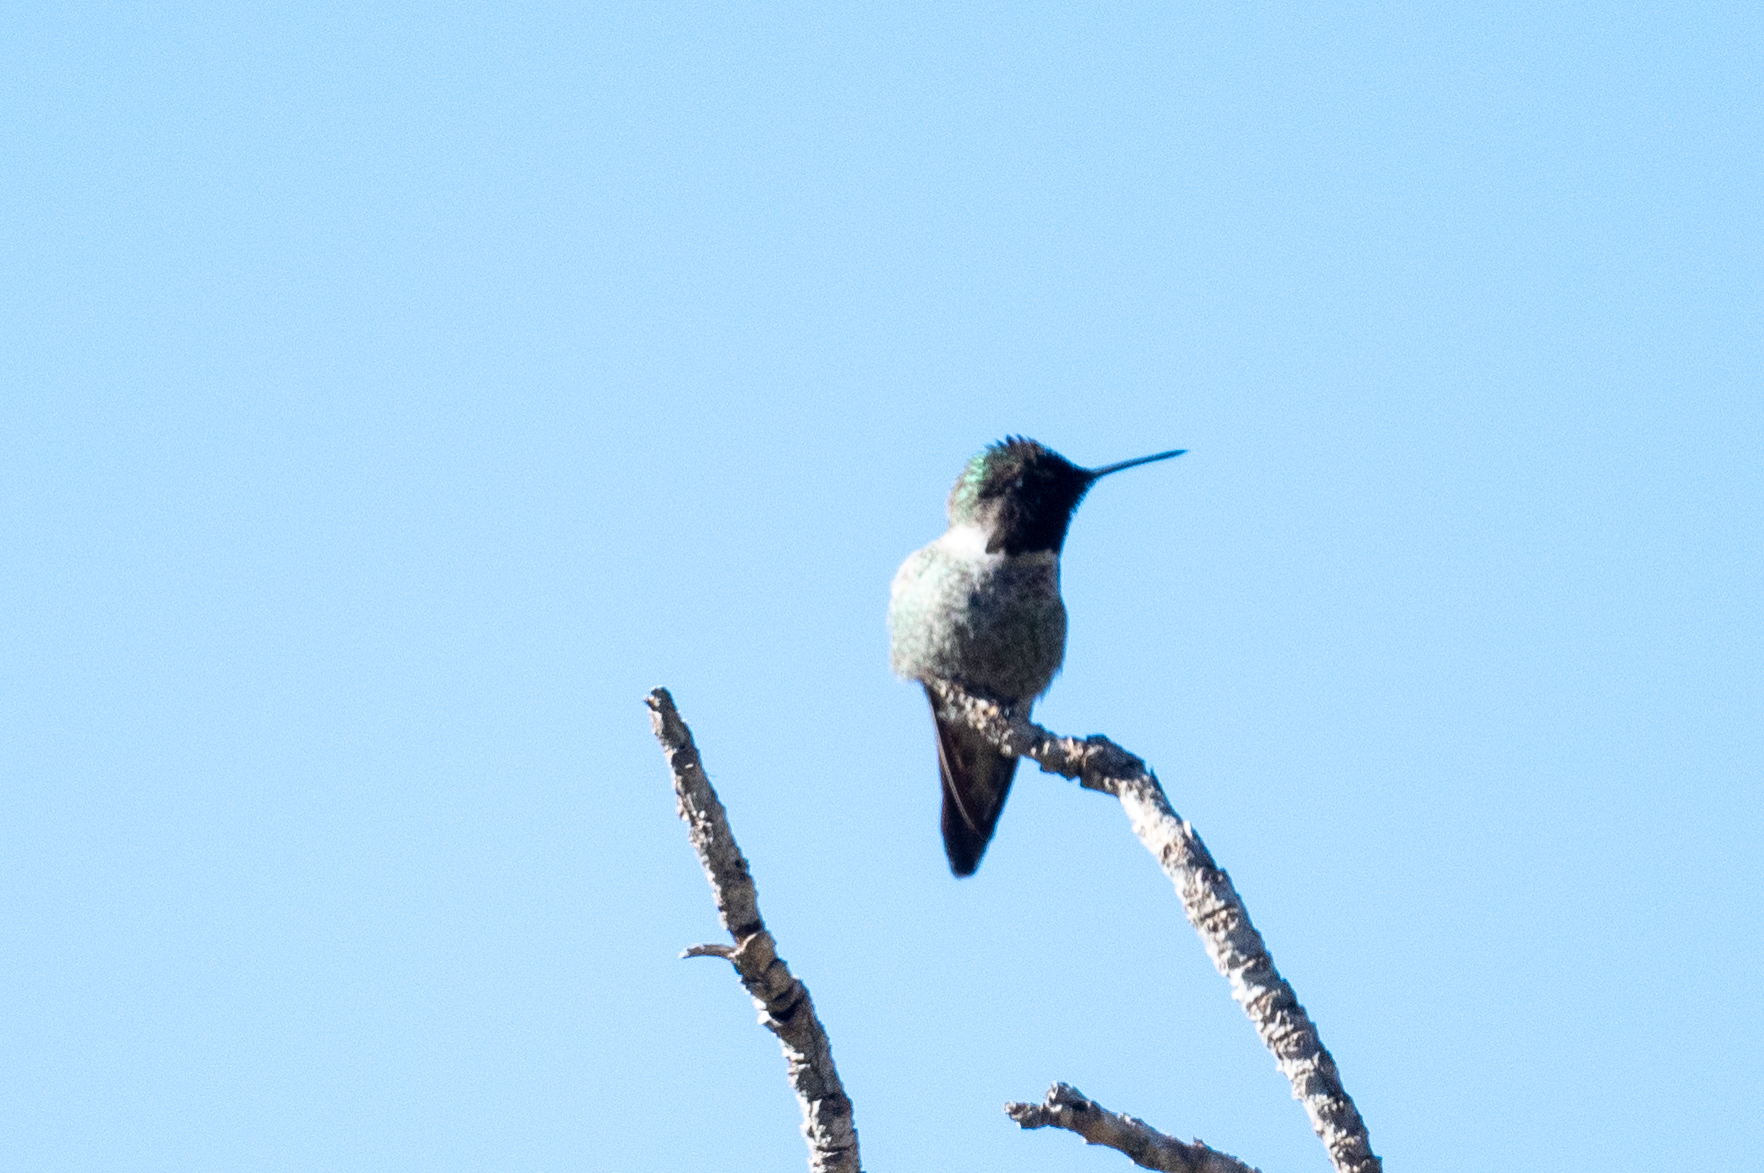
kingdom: Animalia
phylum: Chordata
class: Aves
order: Apodiformes
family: Trochilidae
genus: Calypte
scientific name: Calypte anna
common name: Anna's hummingbird
